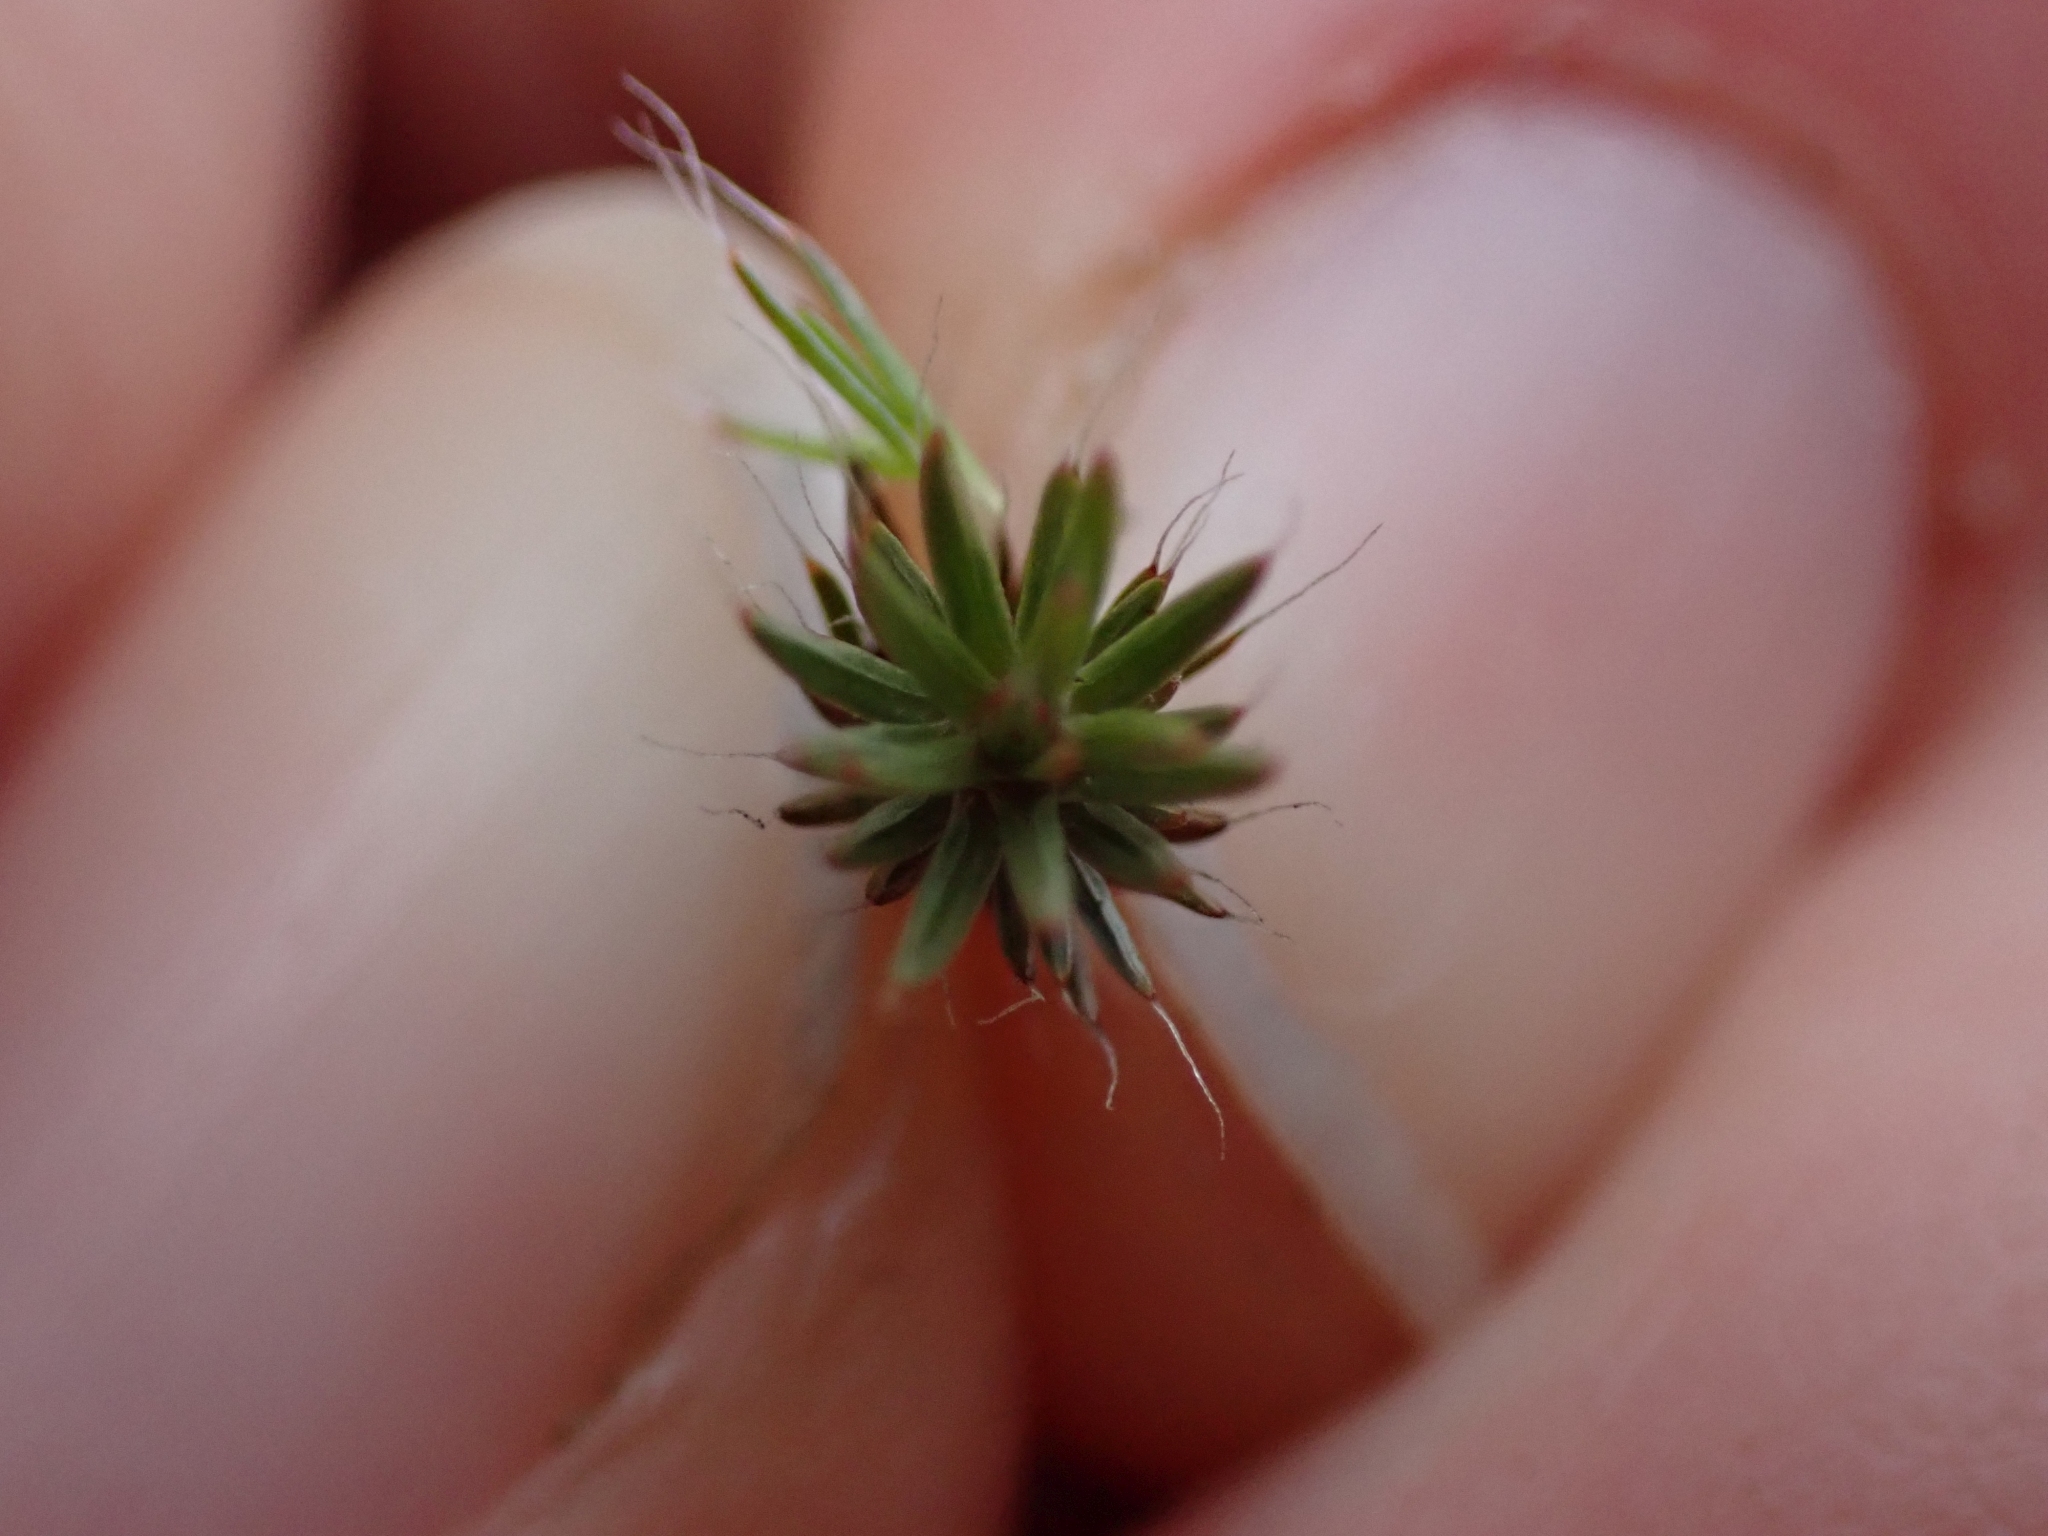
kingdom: Plantae
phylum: Bryophyta
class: Polytrichopsida
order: Polytrichales
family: Polytrichaceae
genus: Polytrichum
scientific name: Polytrichum piliferum
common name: Bristly haircap
